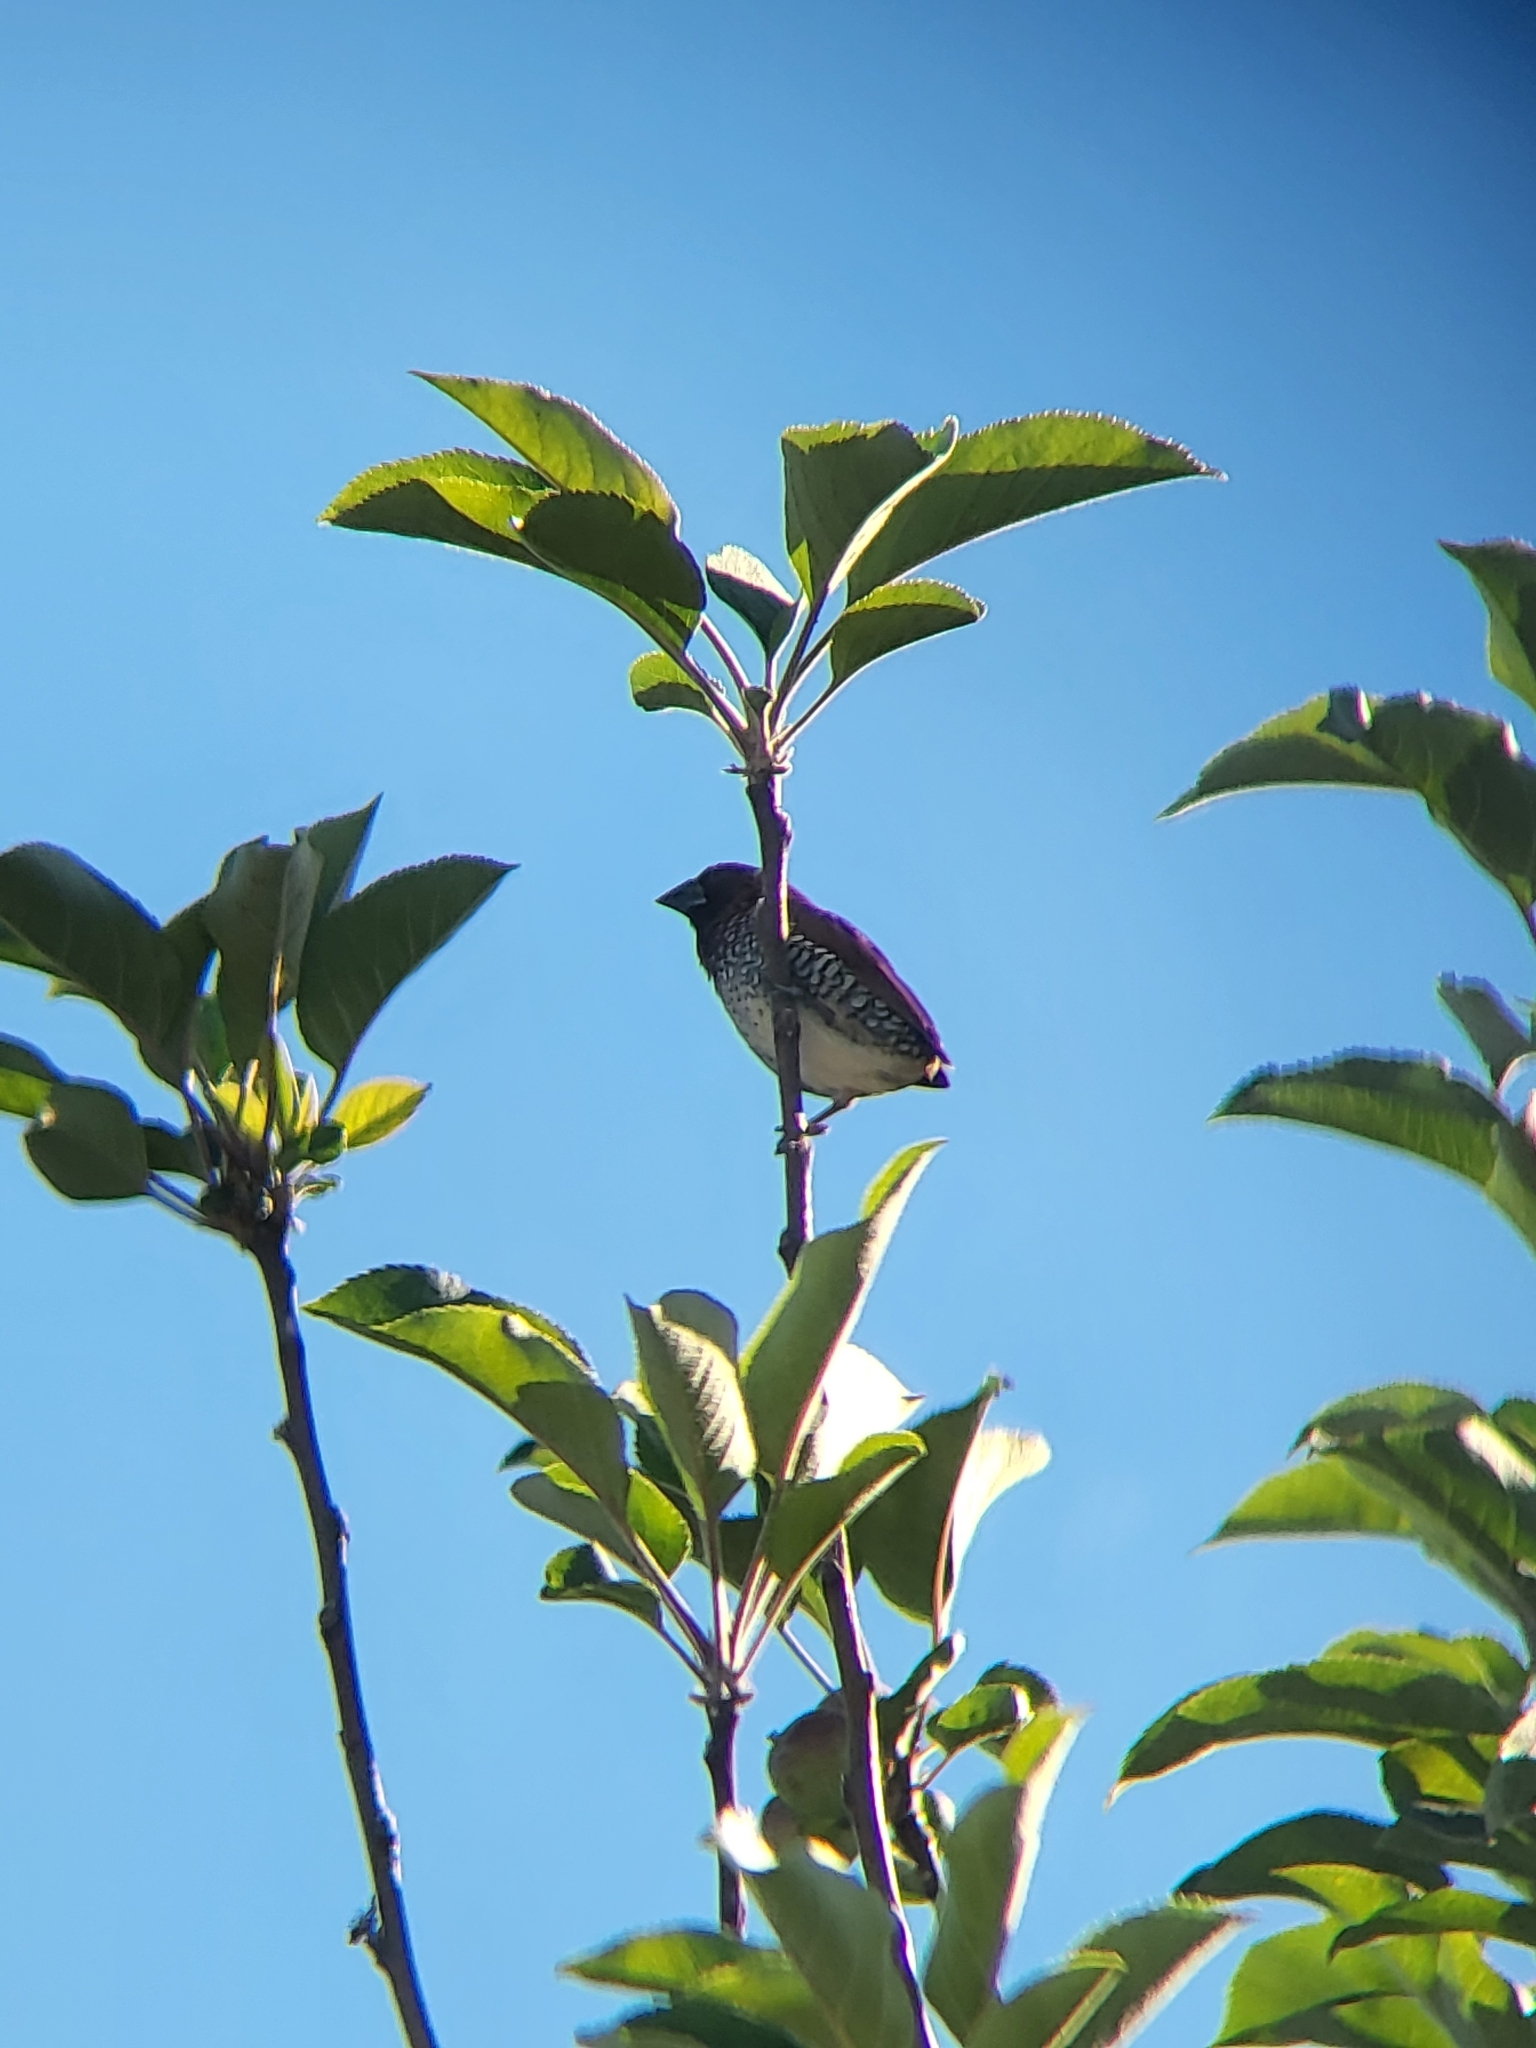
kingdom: Animalia
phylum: Chordata
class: Aves
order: Passeriformes
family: Estrildidae
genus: Lonchura
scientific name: Lonchura punctulata
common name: Scaly-breasted munia
